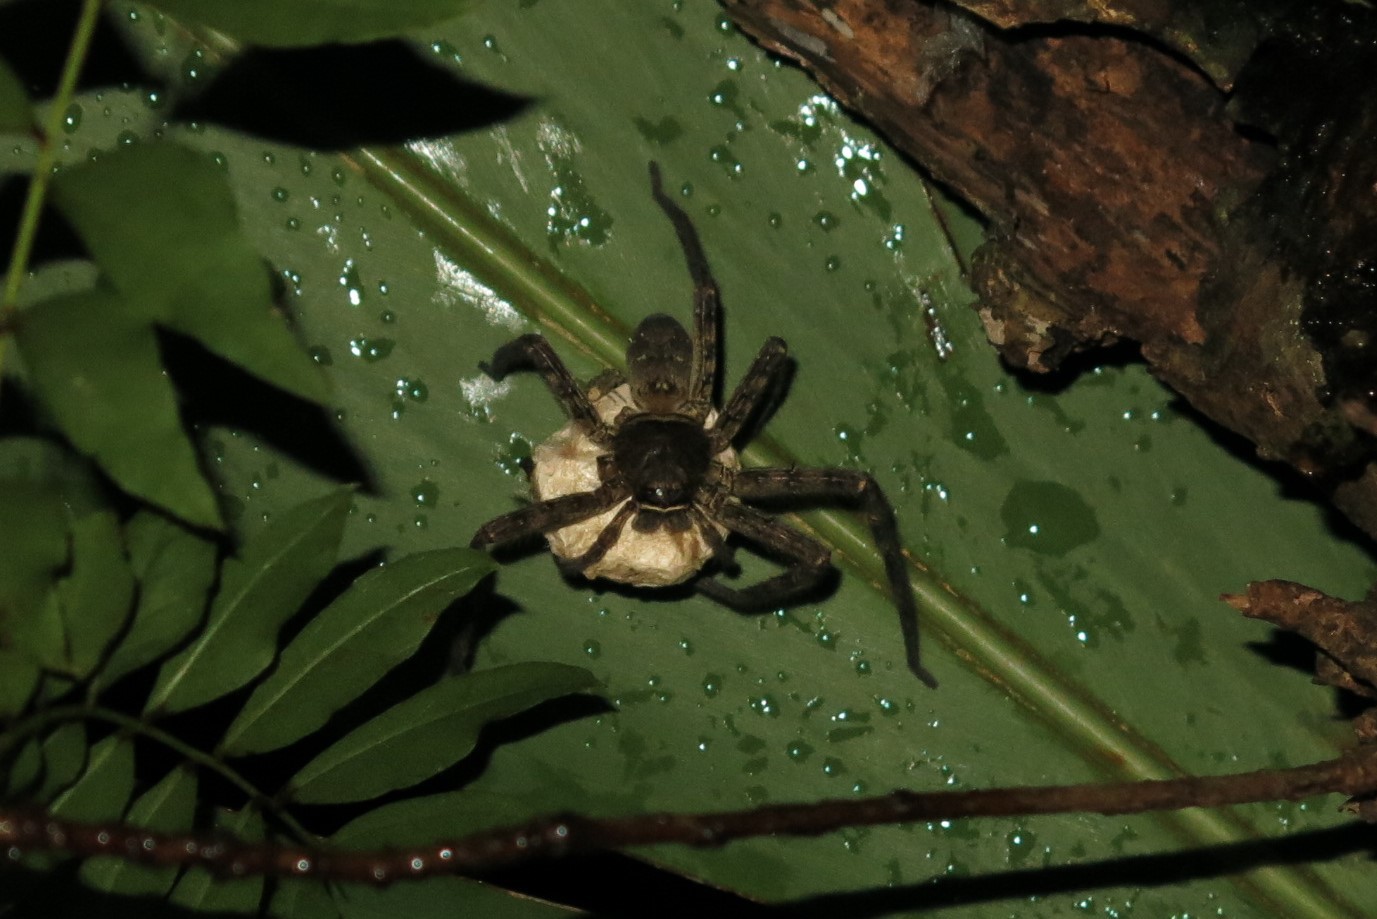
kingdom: Animalia
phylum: Arthropoda
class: Arachnida
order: Araneae
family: Sparassidae
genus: Heteropoda
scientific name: Heteropoda venatoria
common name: Huntsman spider
